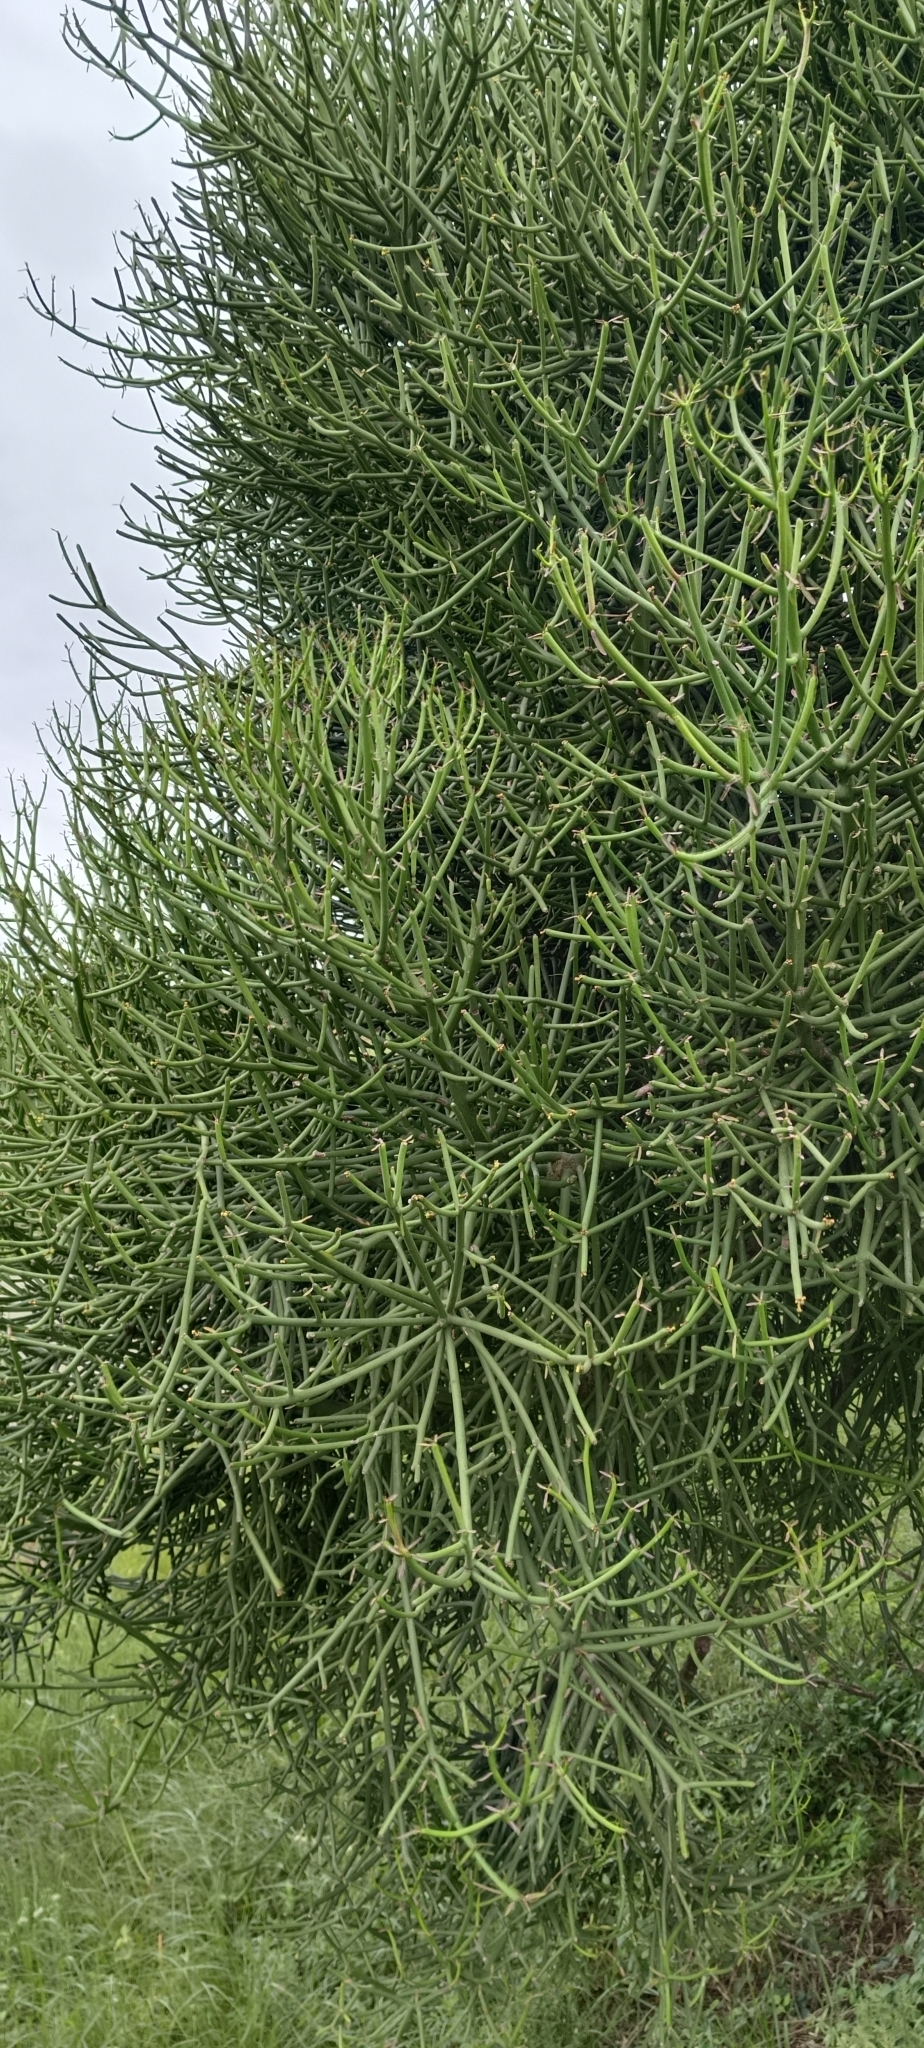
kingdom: Plantae
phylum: Tracheophyta
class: Magnoliopsida
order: Malpighiales
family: Euphorbiaceae
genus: Euphorbia
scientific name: Euphorbia tirucalli
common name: Indiantree spurge
